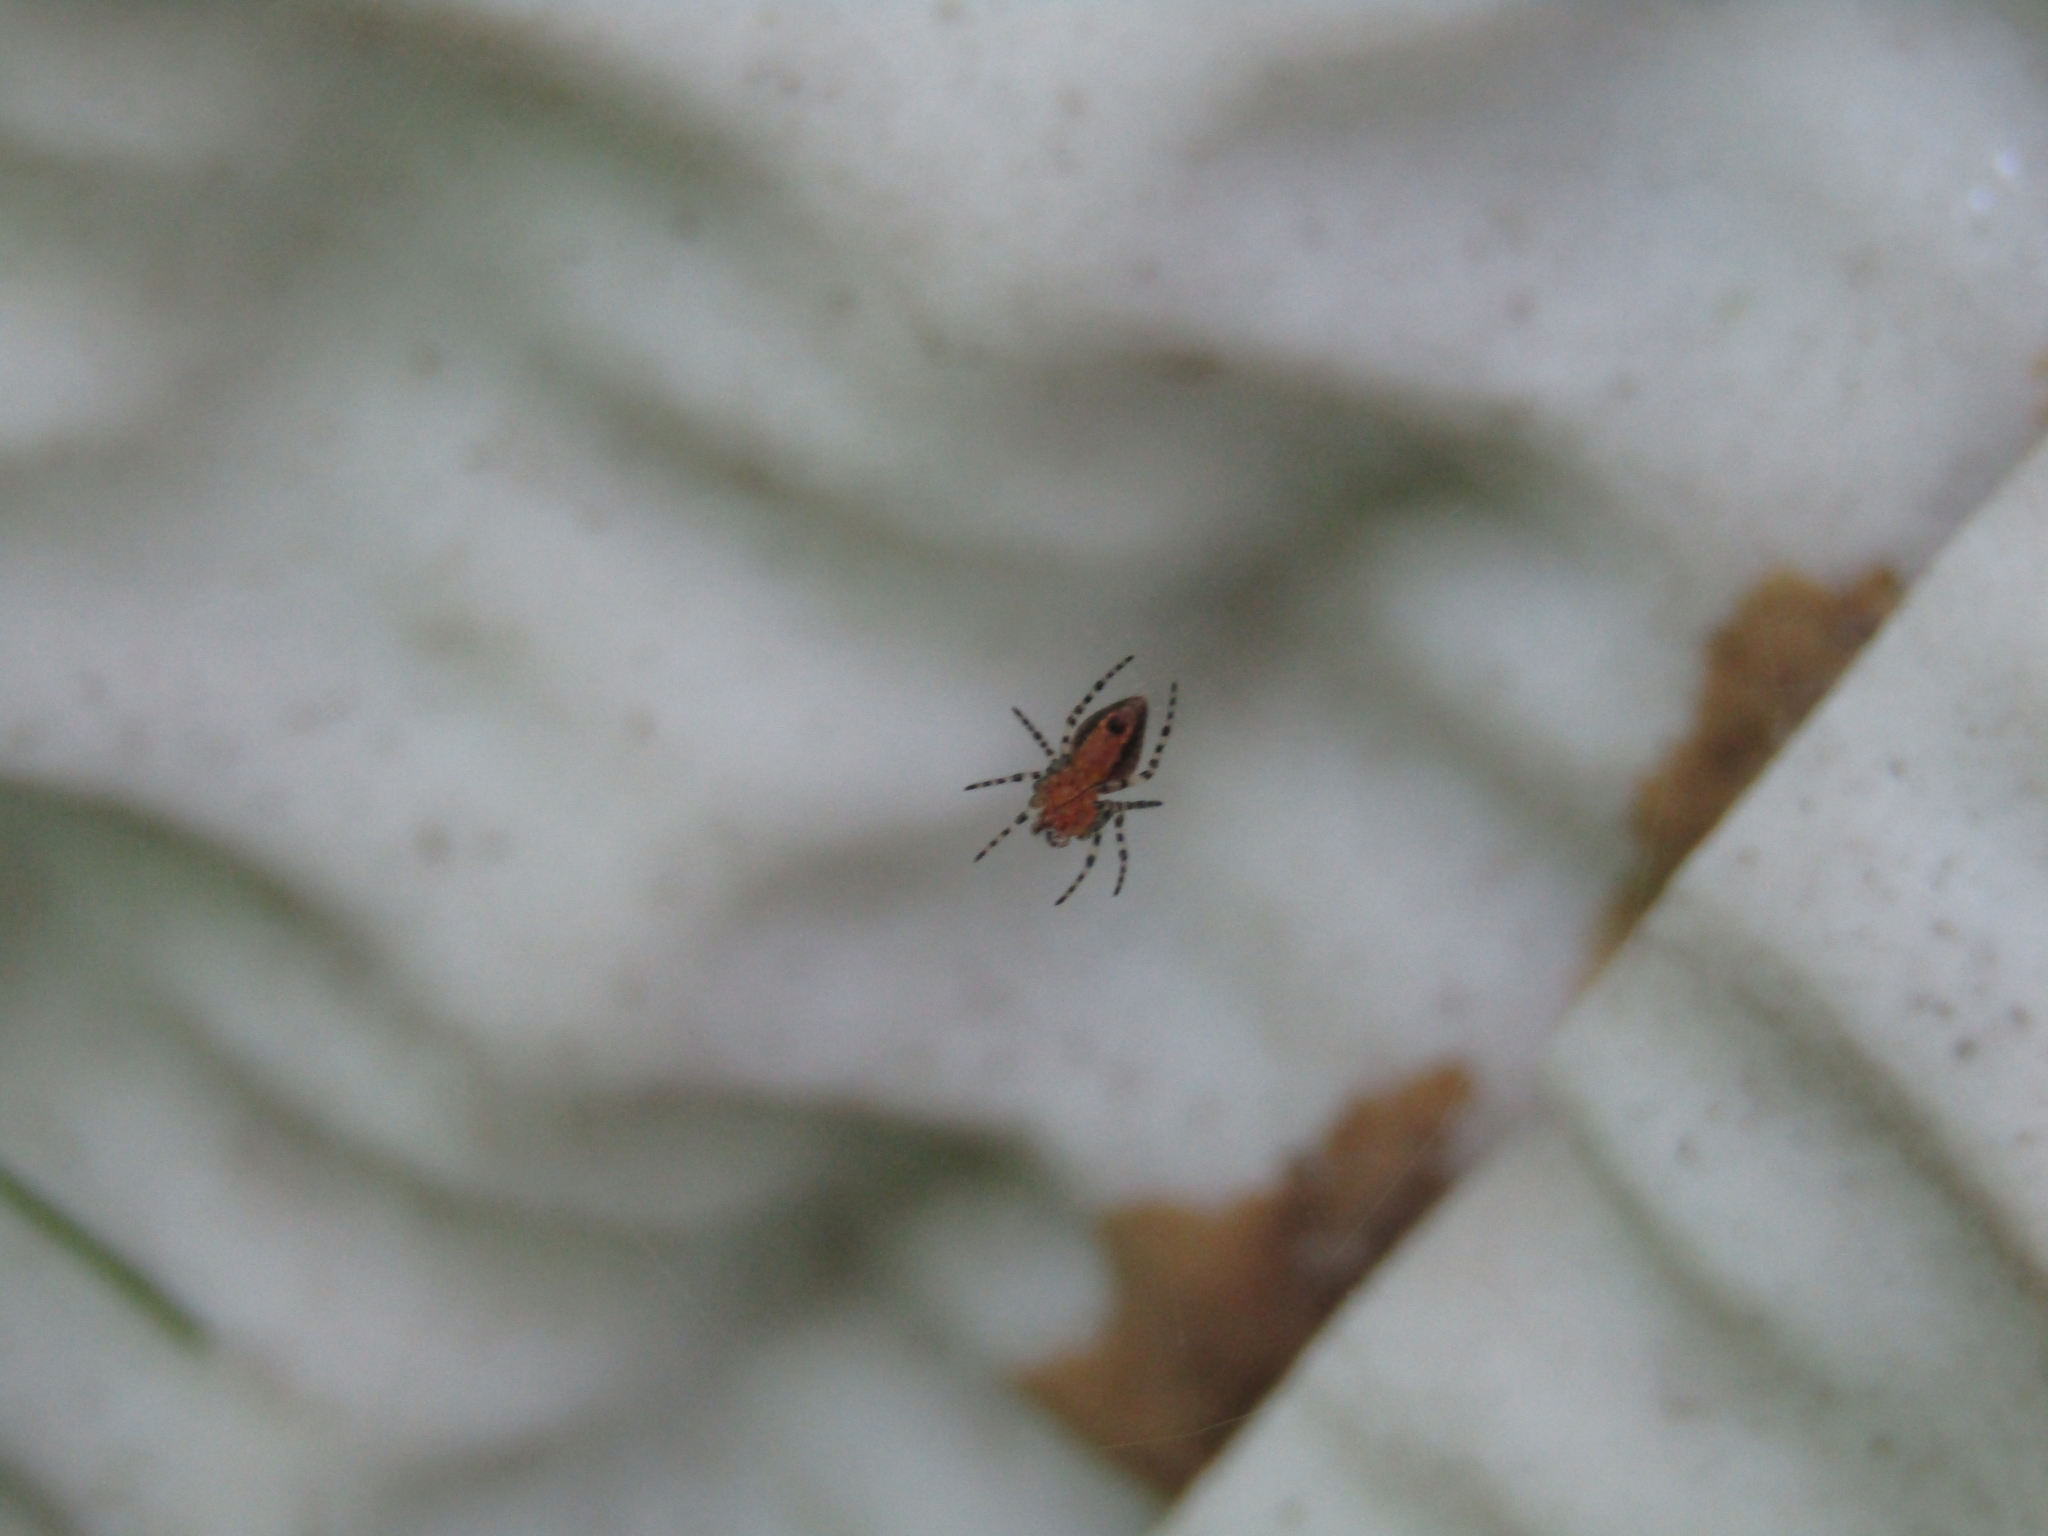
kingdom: Animalia
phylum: Arthropoda
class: Arachnida
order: Araneae
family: Araneidae
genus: Alpaida
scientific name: Alpaida gallardoi
